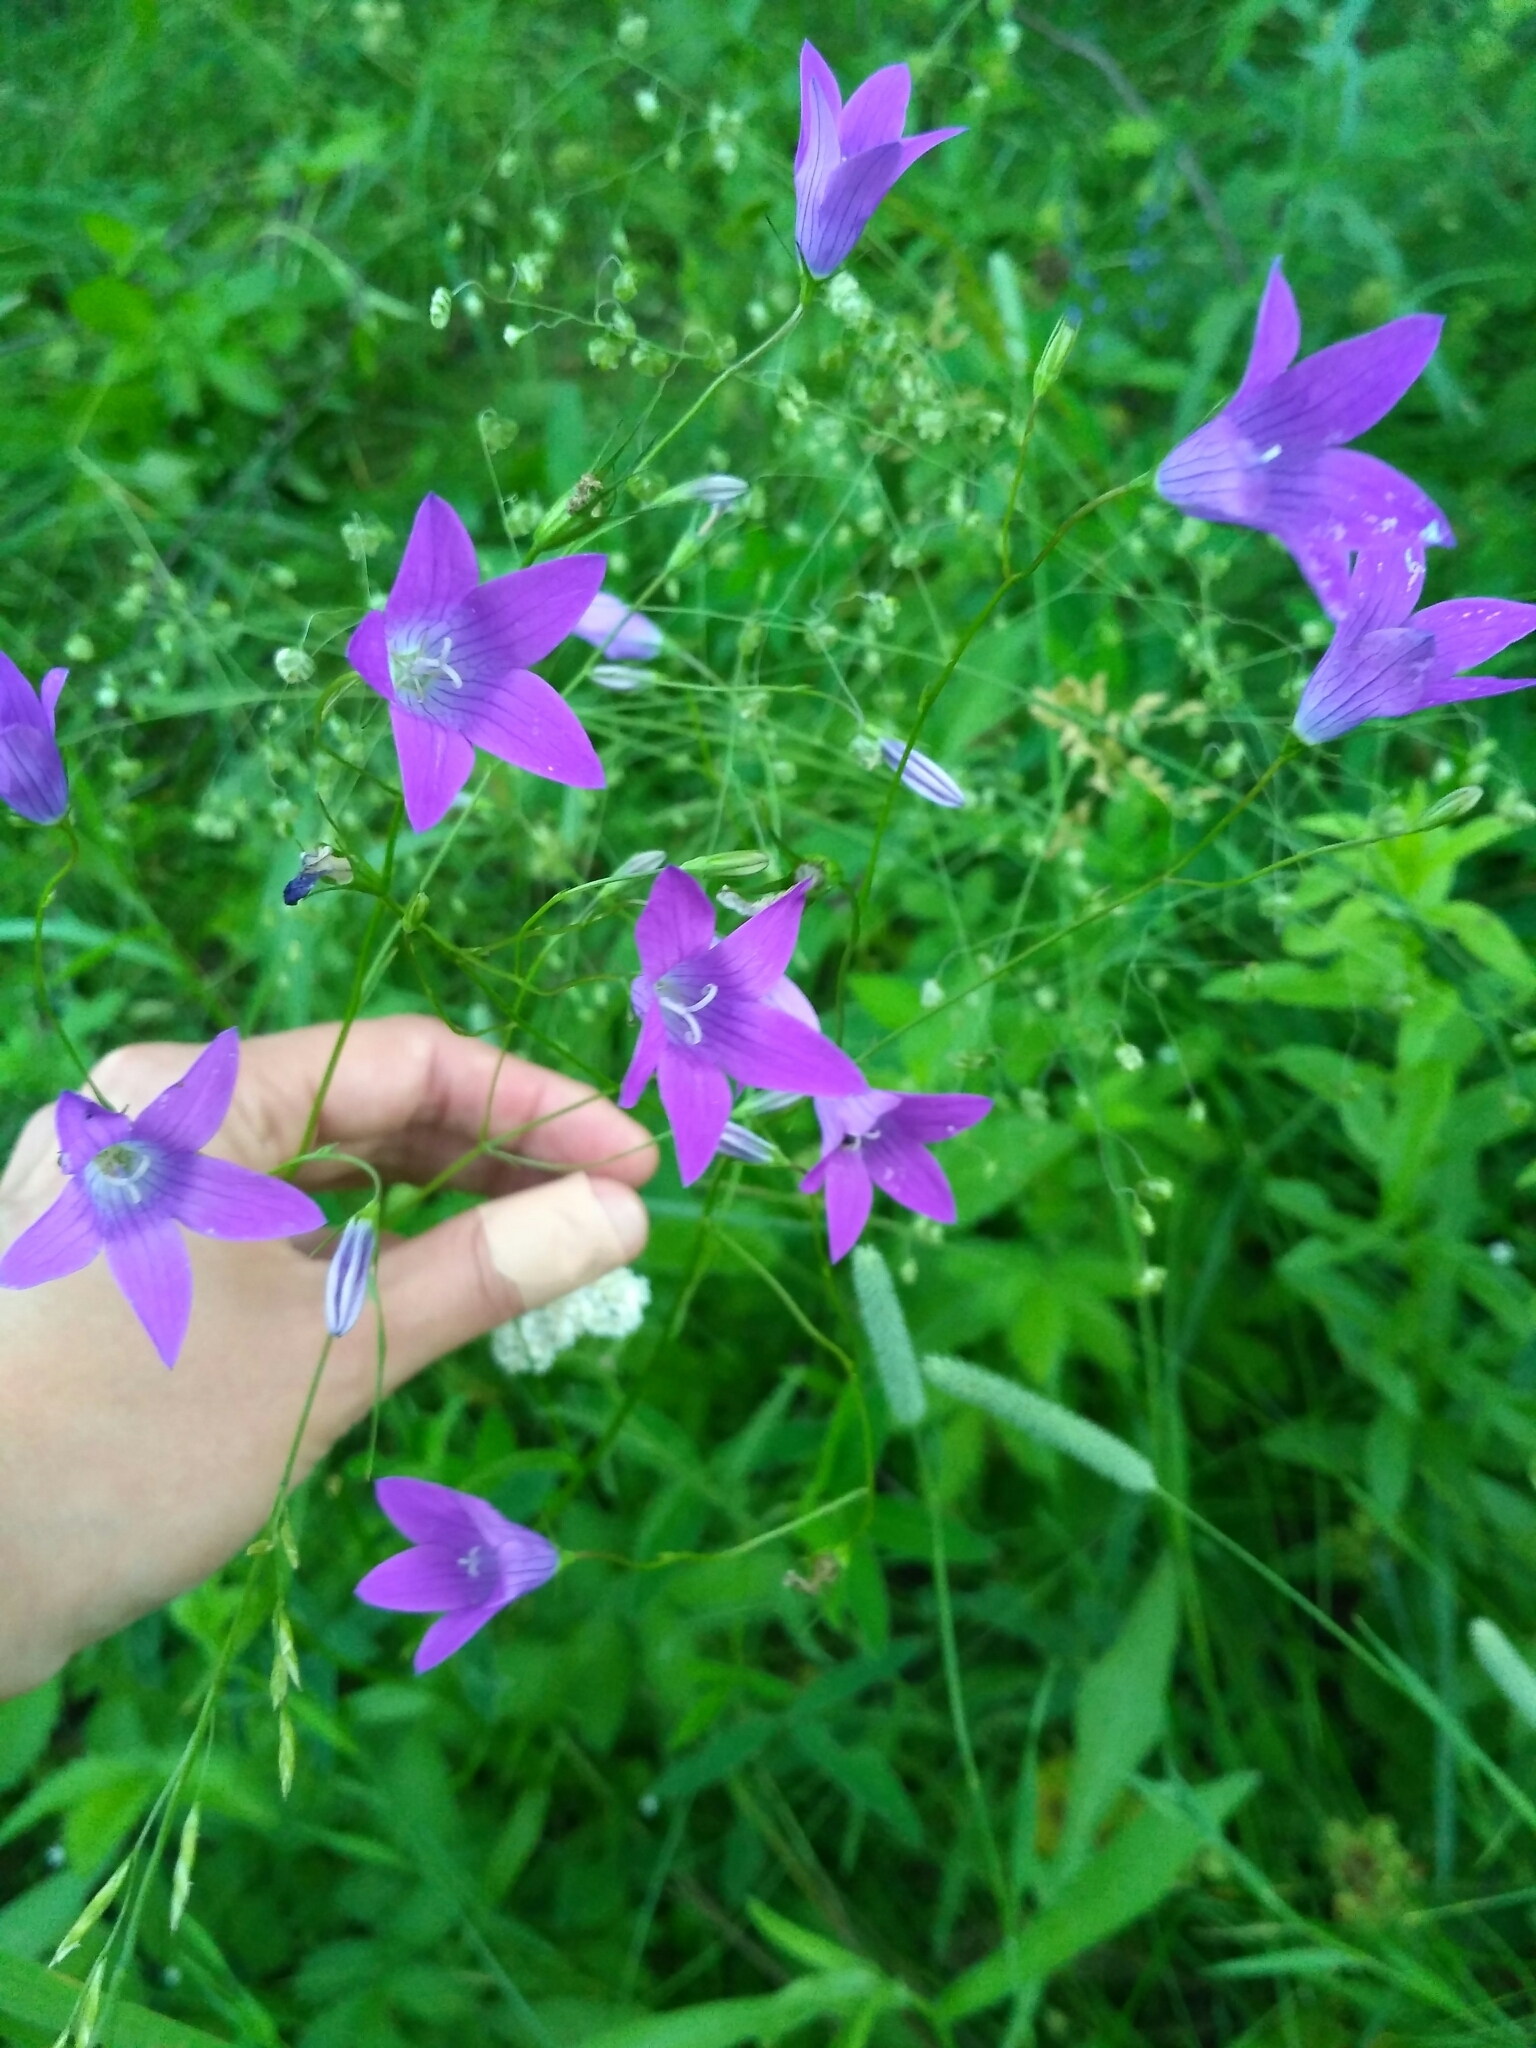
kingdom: Plantae
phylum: Tracheophyta
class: Magnoliopsida
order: Asterales
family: Campanulaceae
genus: Campanula
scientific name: Campanula patula
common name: Spreading bellflower
